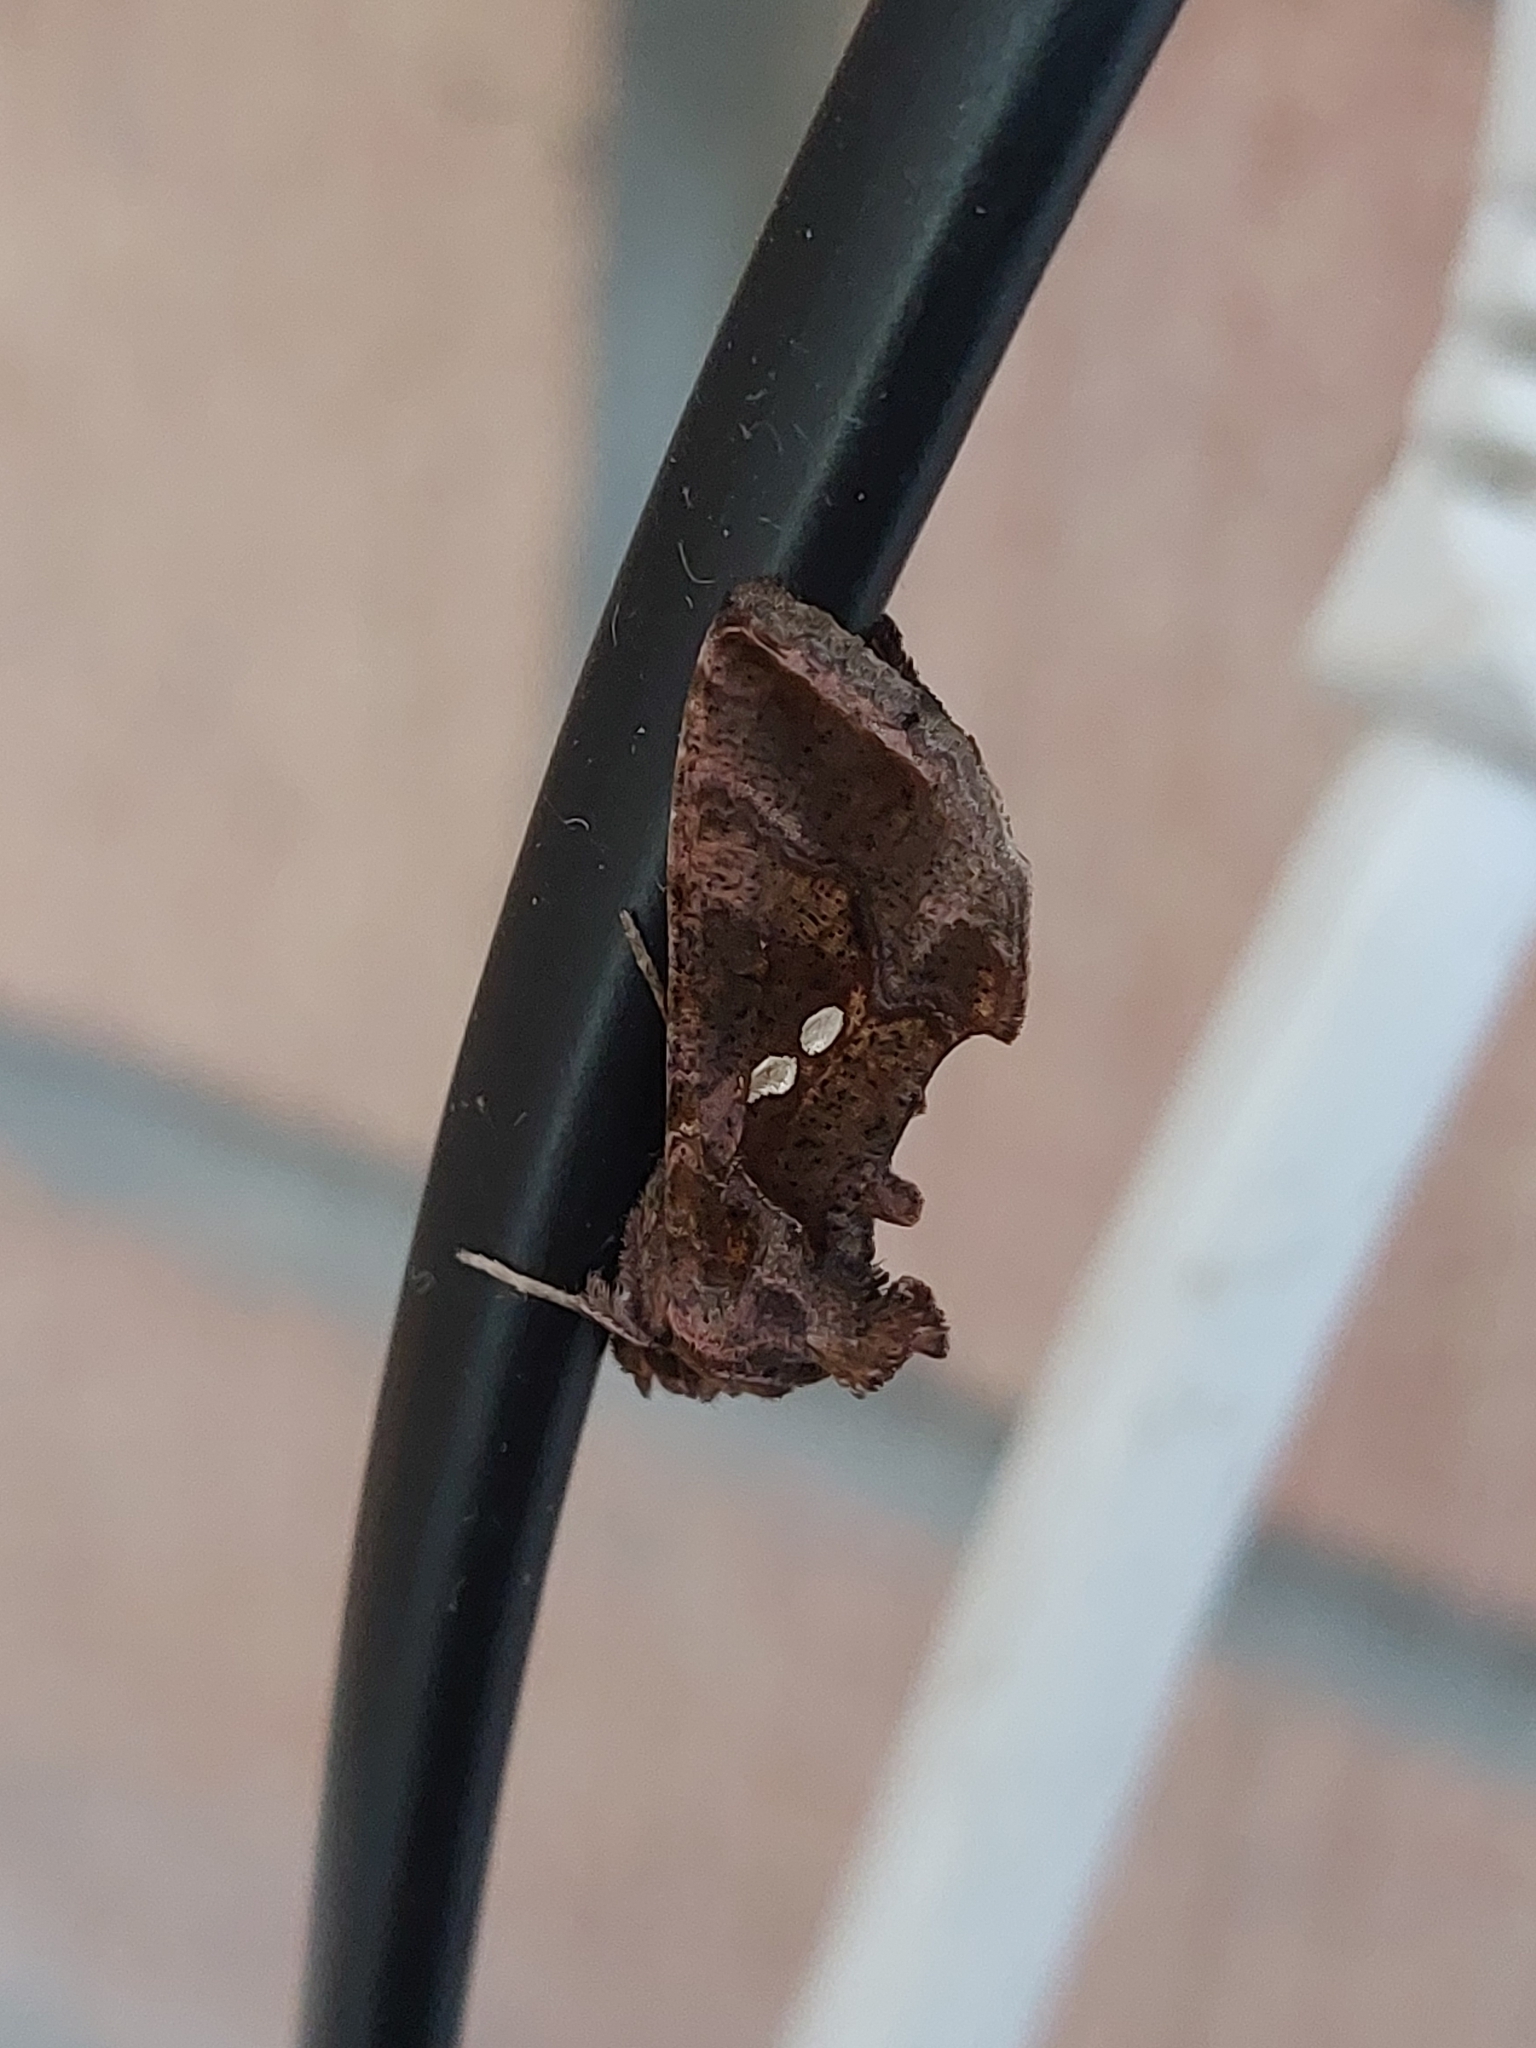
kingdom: Animalia
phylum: Arthropoda
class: Insecta
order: Lepidoptera
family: Noctuidae
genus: Chrysodeixis
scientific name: Chrysodeixis chalcites
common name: Golden twin-spot
